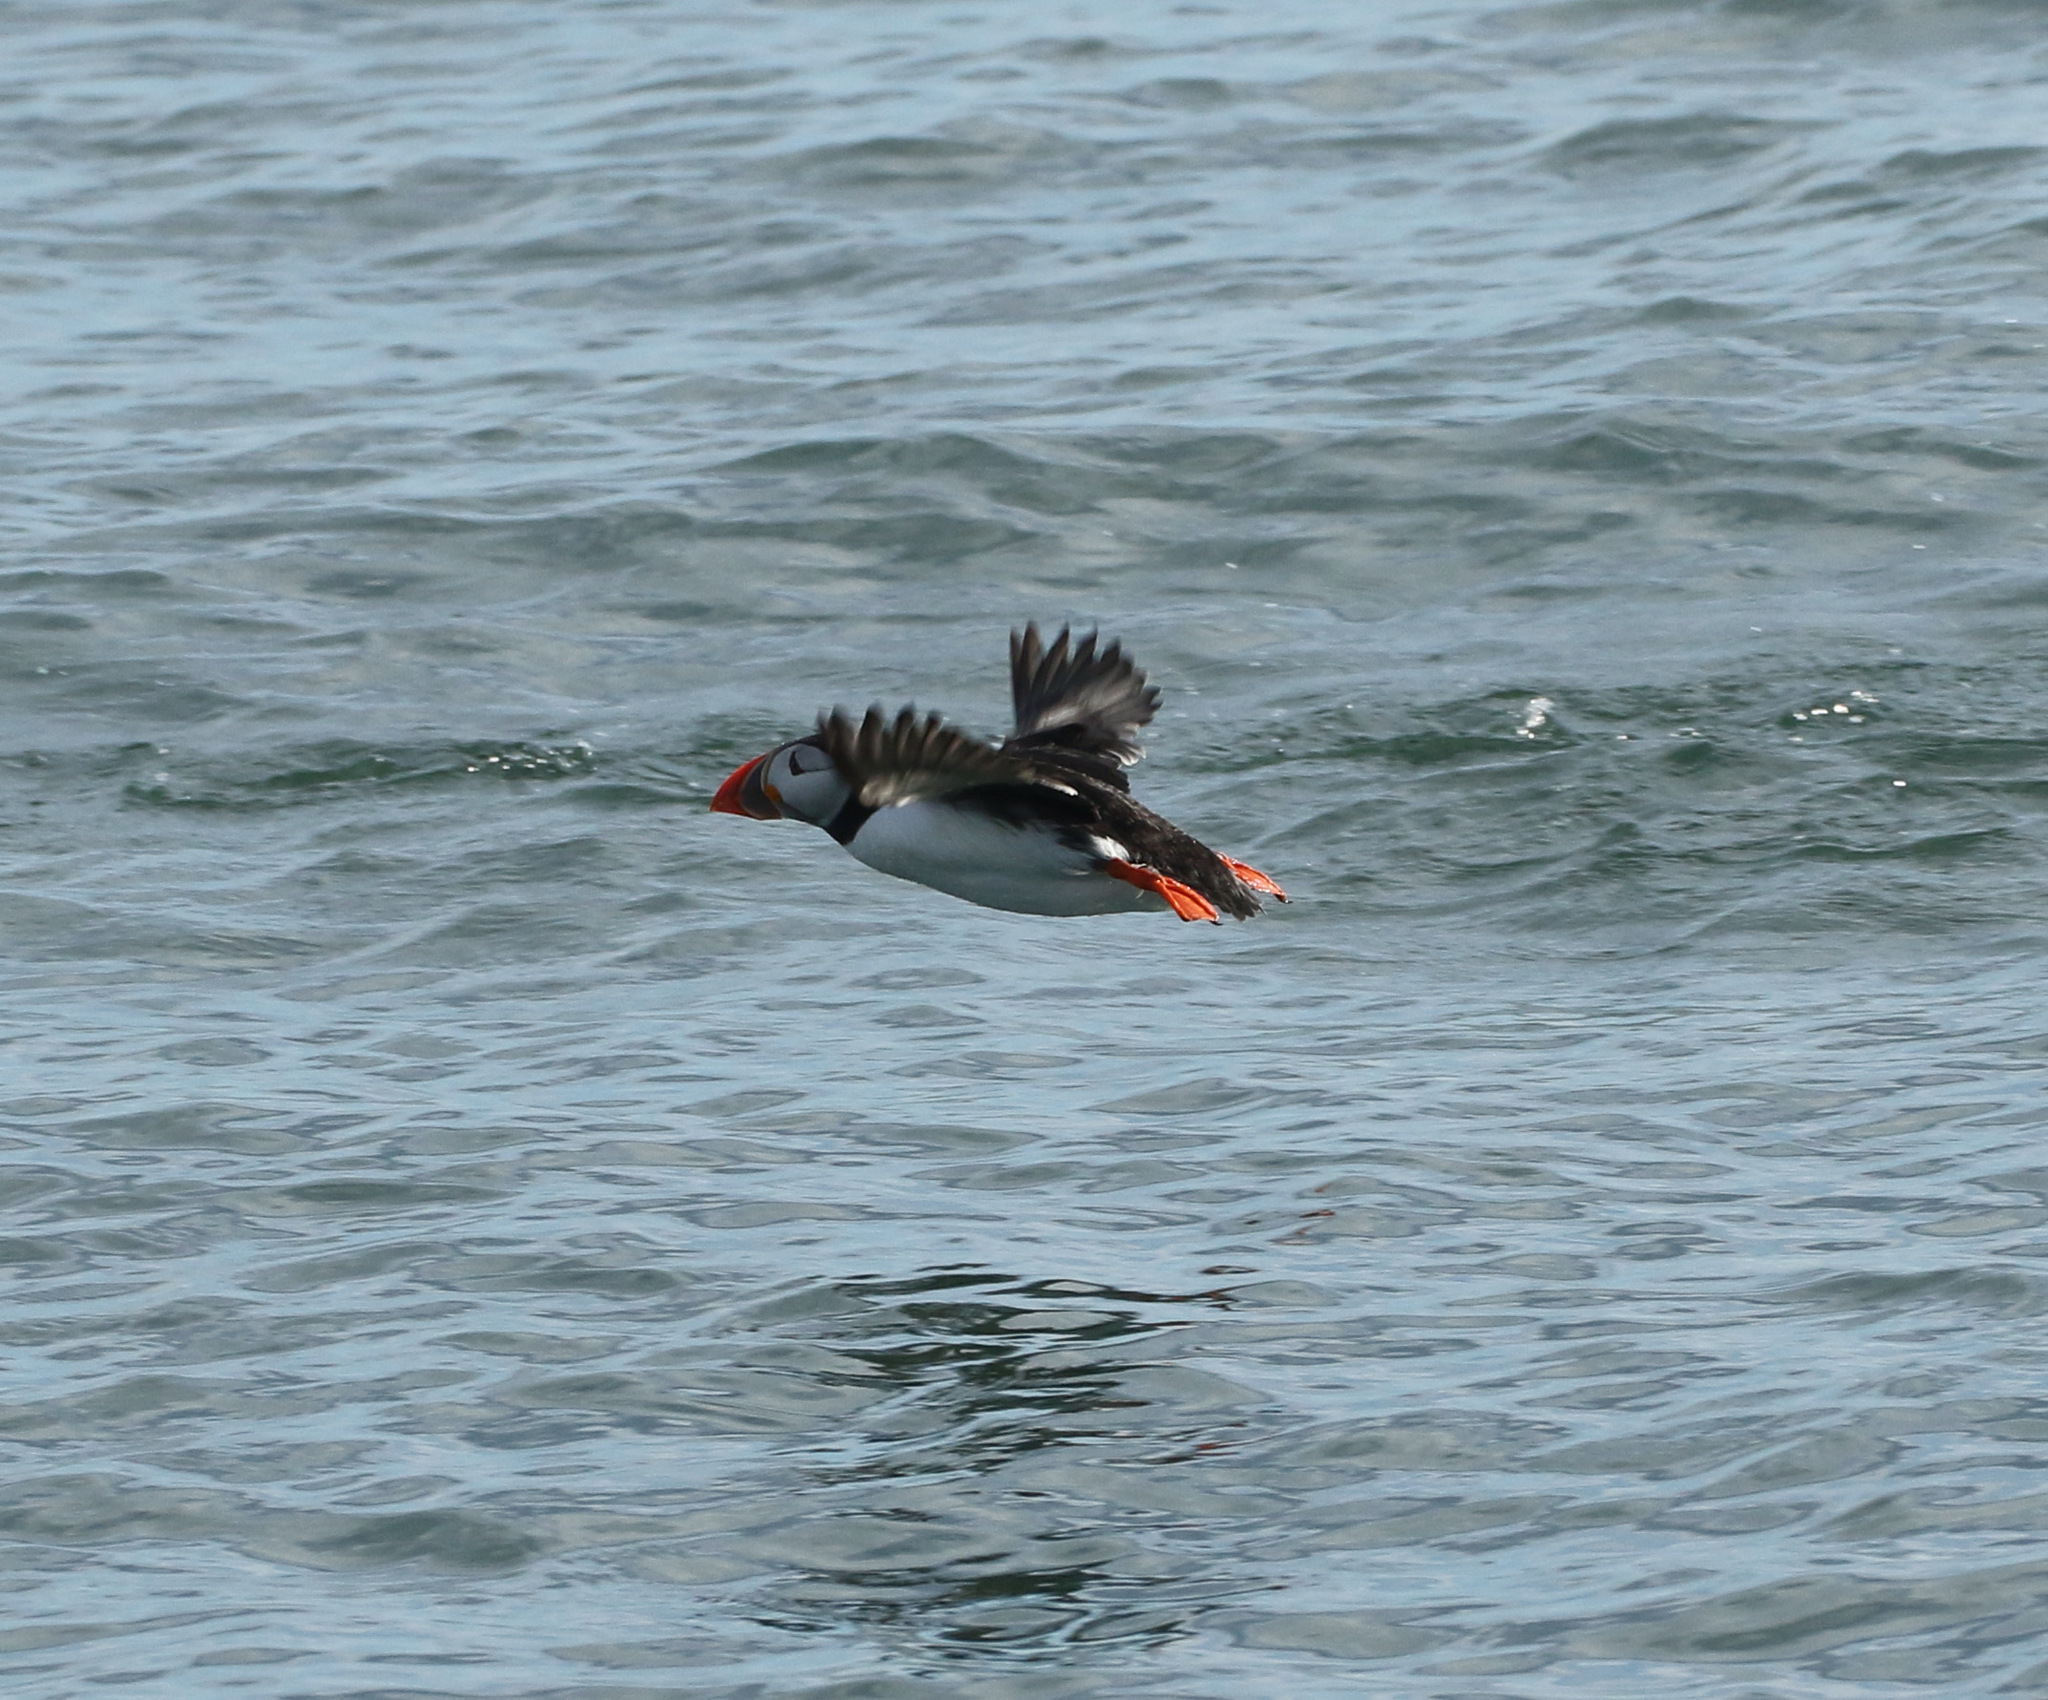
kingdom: Animalia
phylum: Chordata
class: Aves
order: Charadriiformes
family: Alcidae
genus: Fratercula
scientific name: Fratercula arctica
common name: Atlantic puffin
